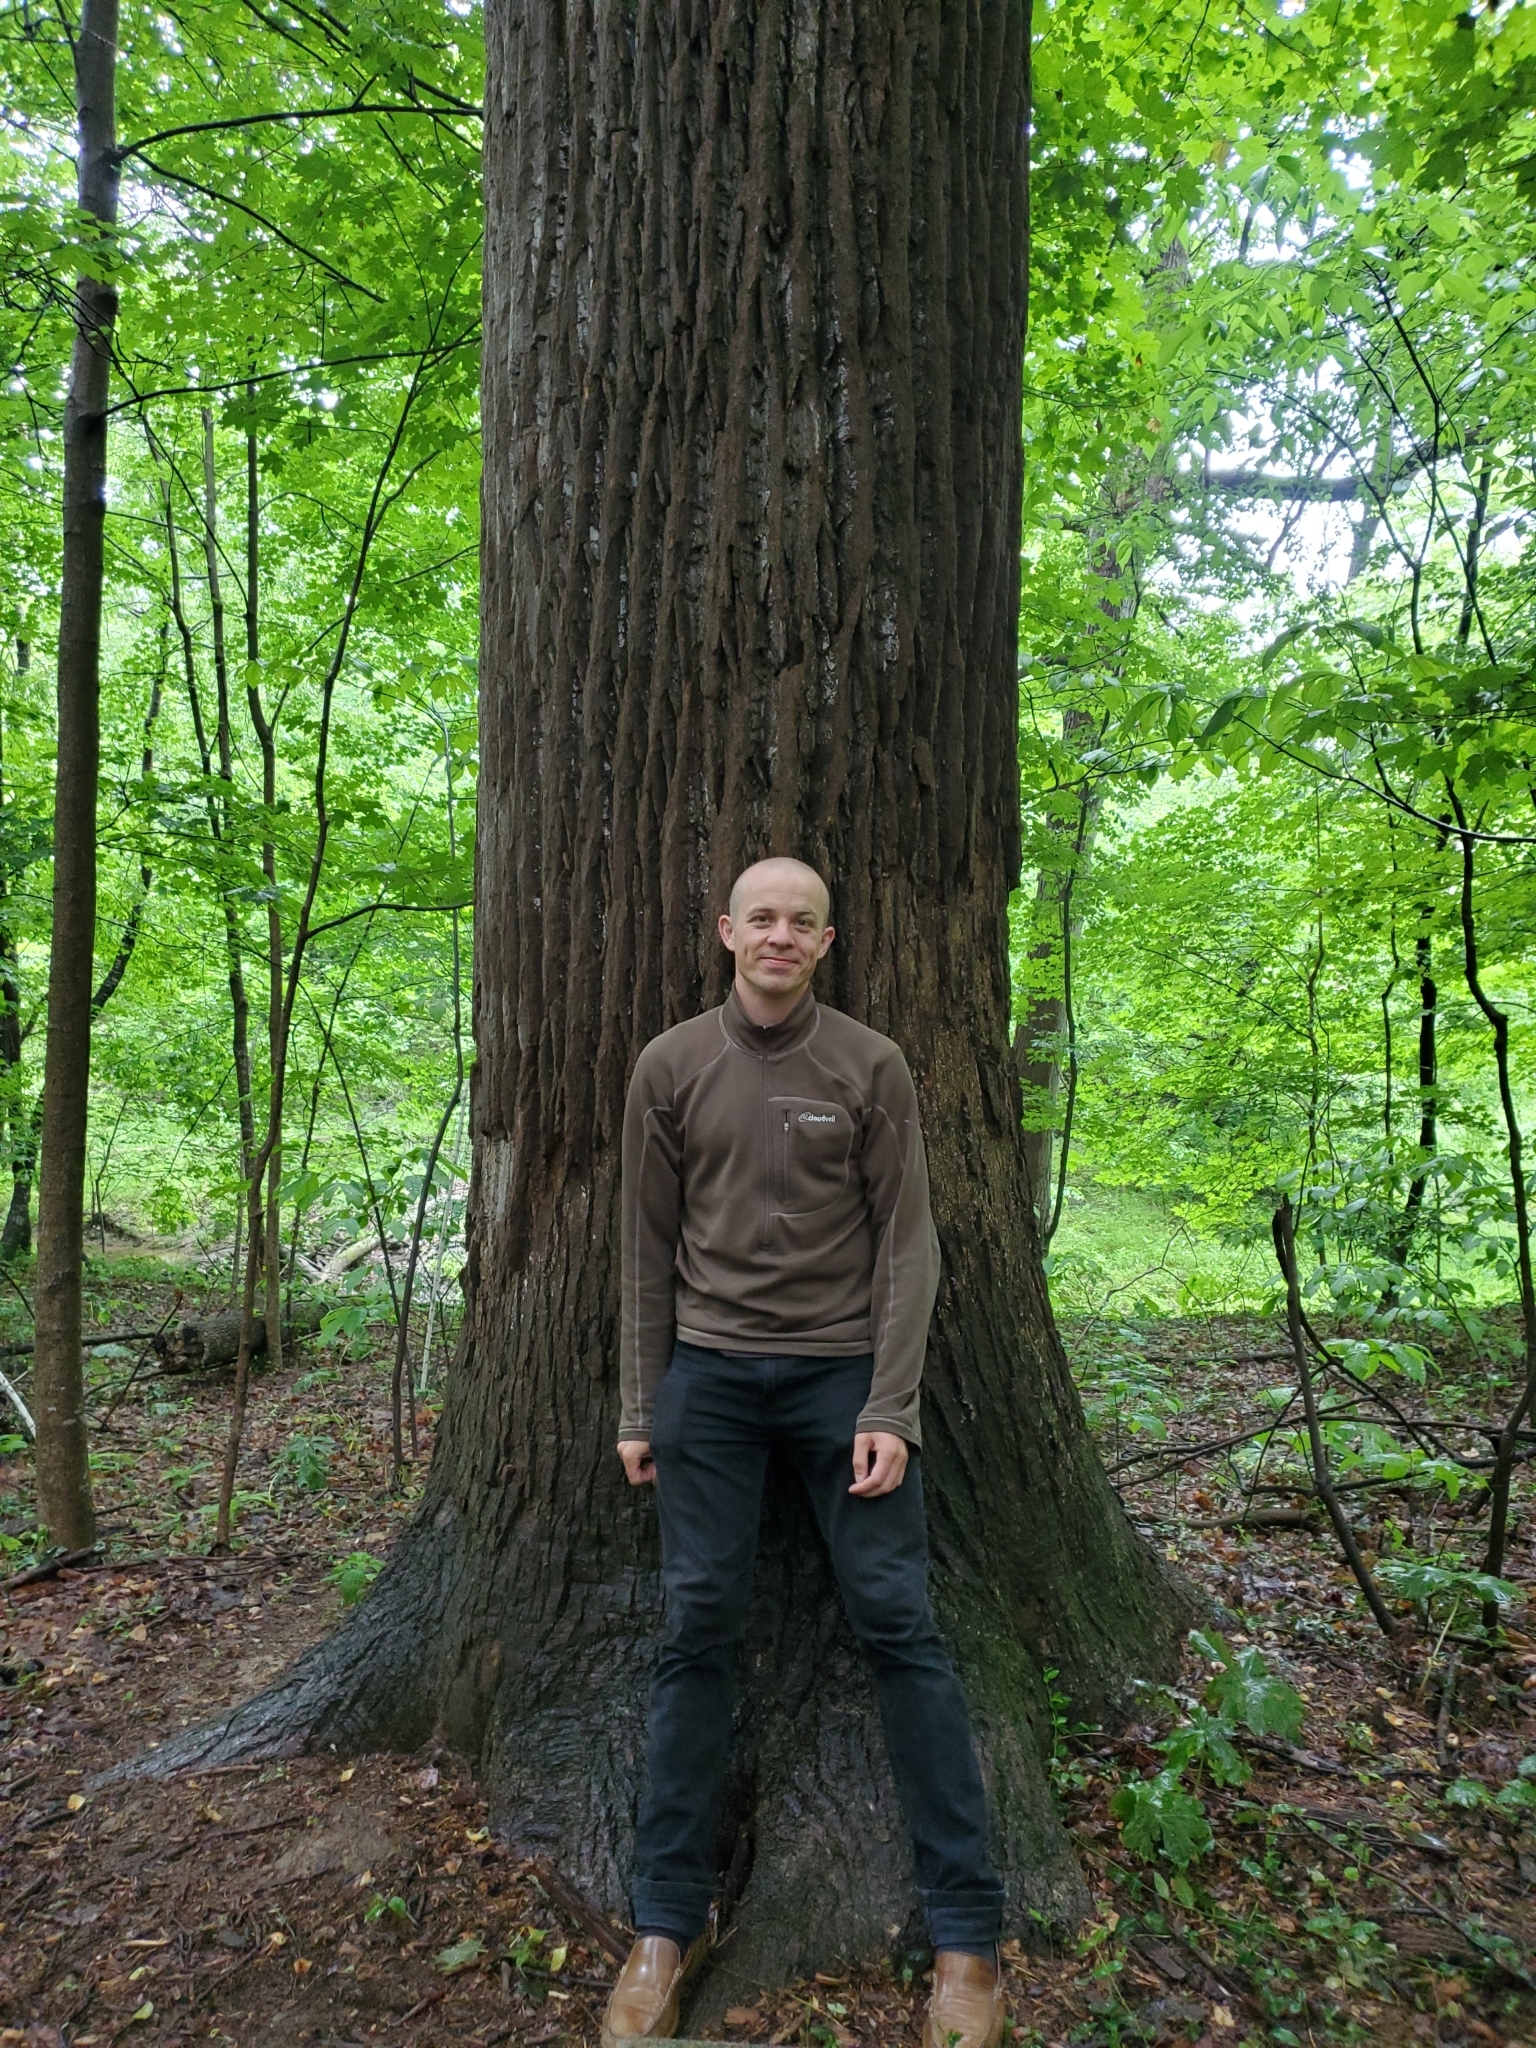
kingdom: Plantae
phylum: Tracheophyta
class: Magnoliopsida
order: Magnoliales
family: Magnoliaceae
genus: Liriodendron
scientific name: Liriodendron tulipifera
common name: Tulip tree
